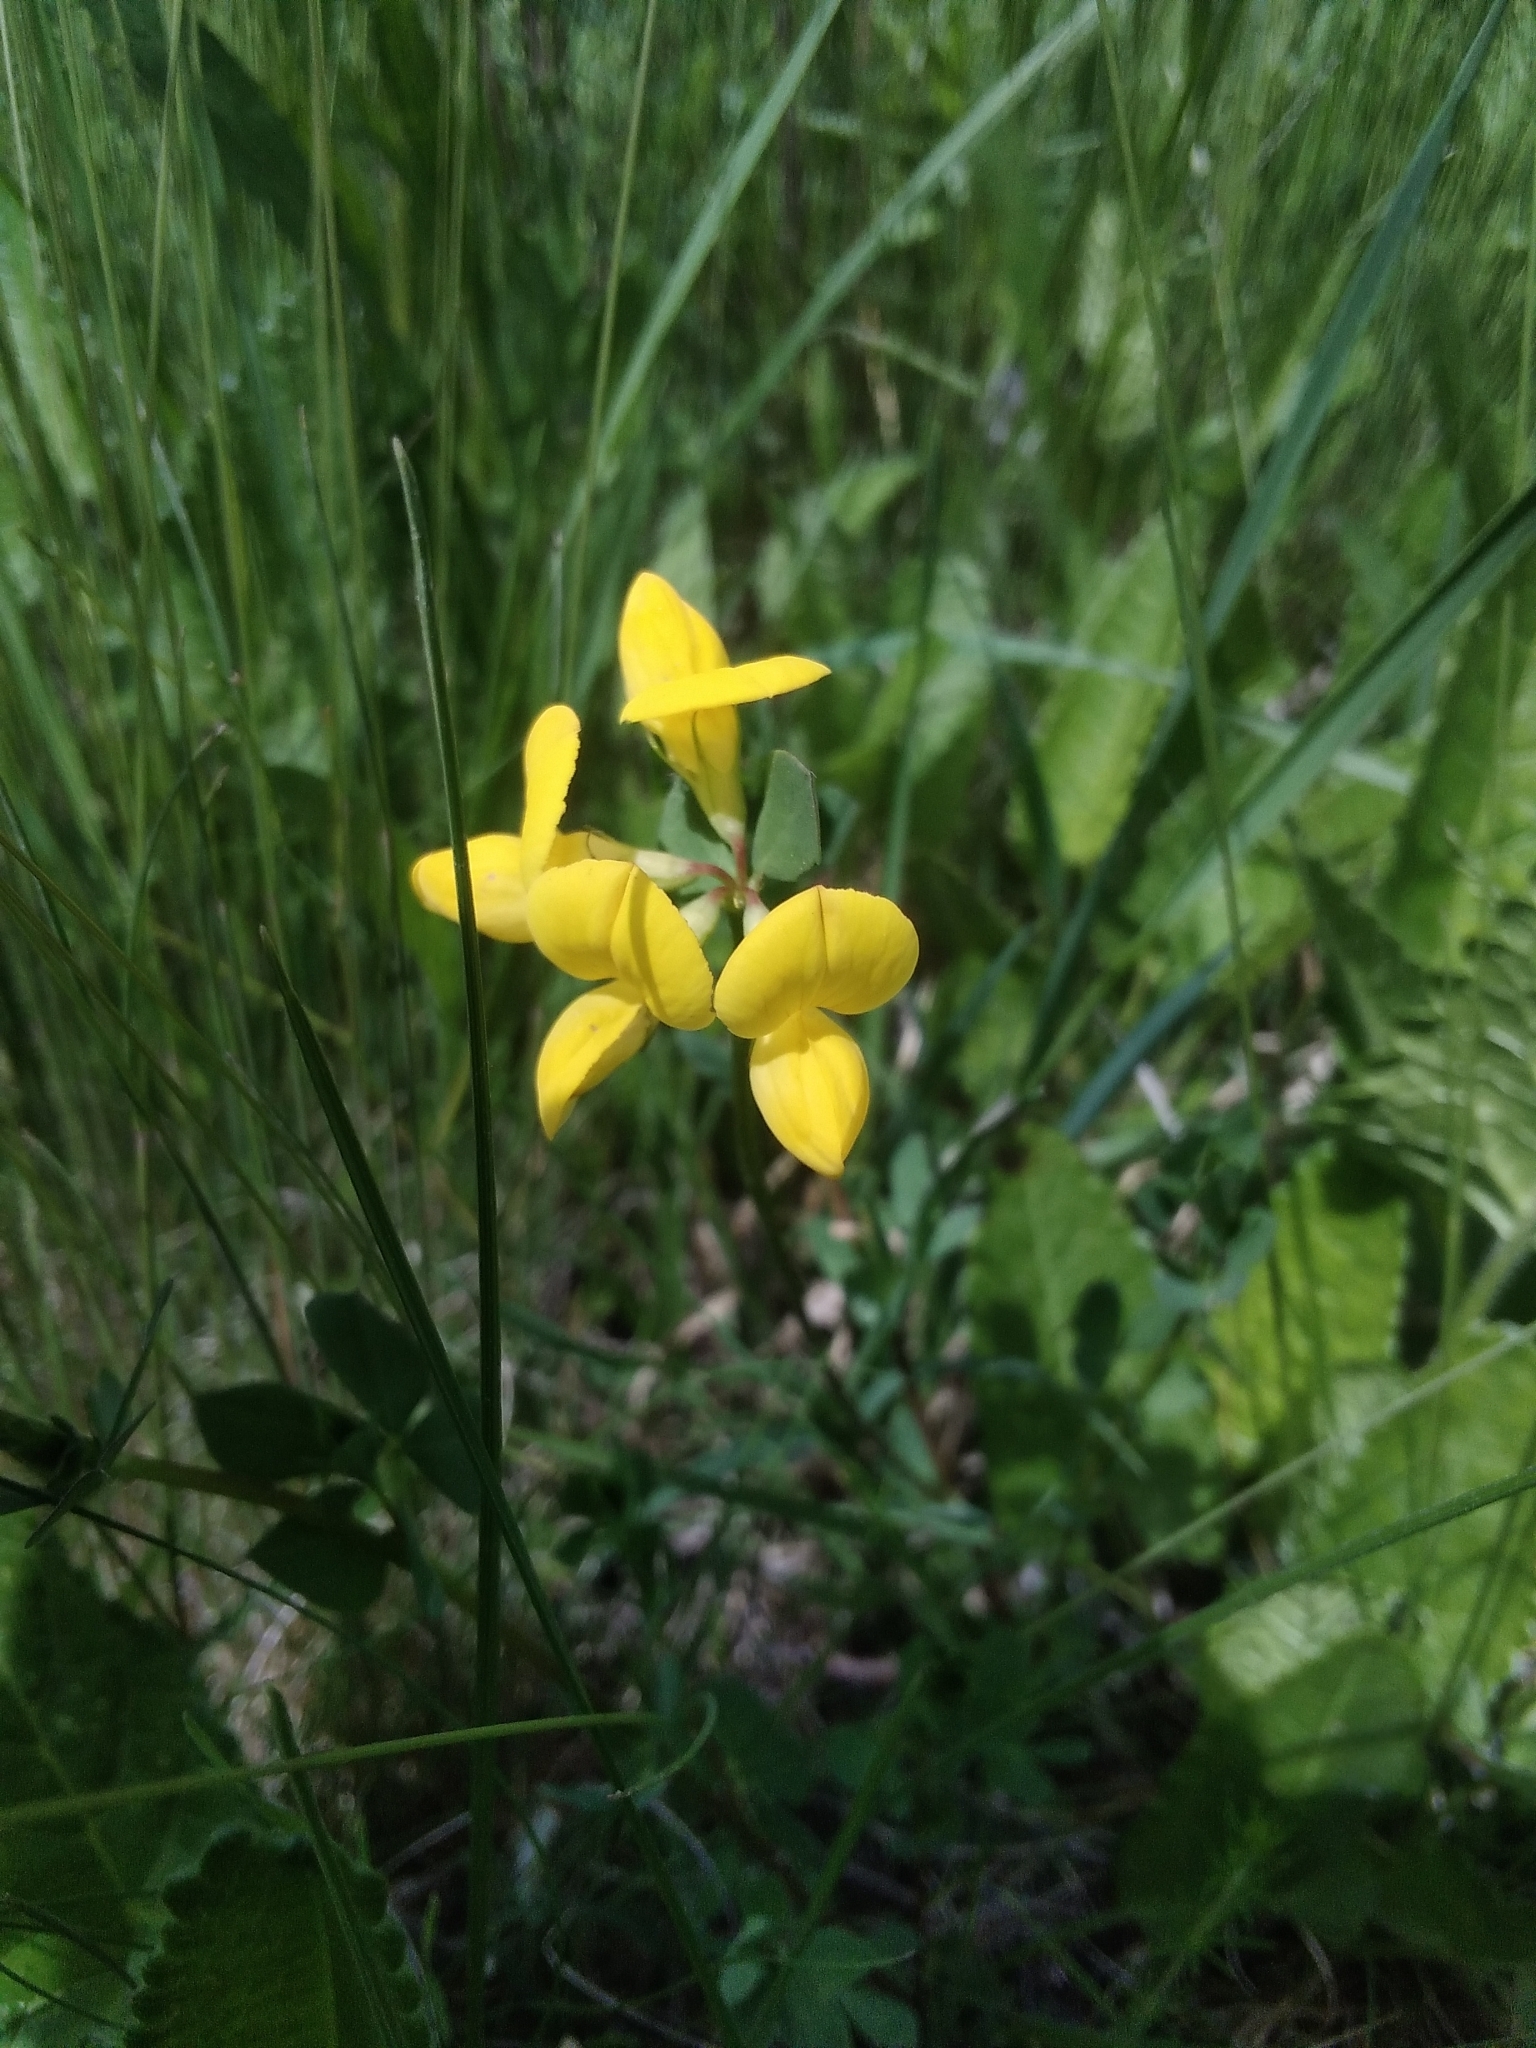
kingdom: Plantae
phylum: Tracheophyta
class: Magnoliopsida
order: Fabales
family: Fabaceae
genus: Lotus
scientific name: Lotus corniculatus
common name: Common bird's-foot-trefoil
